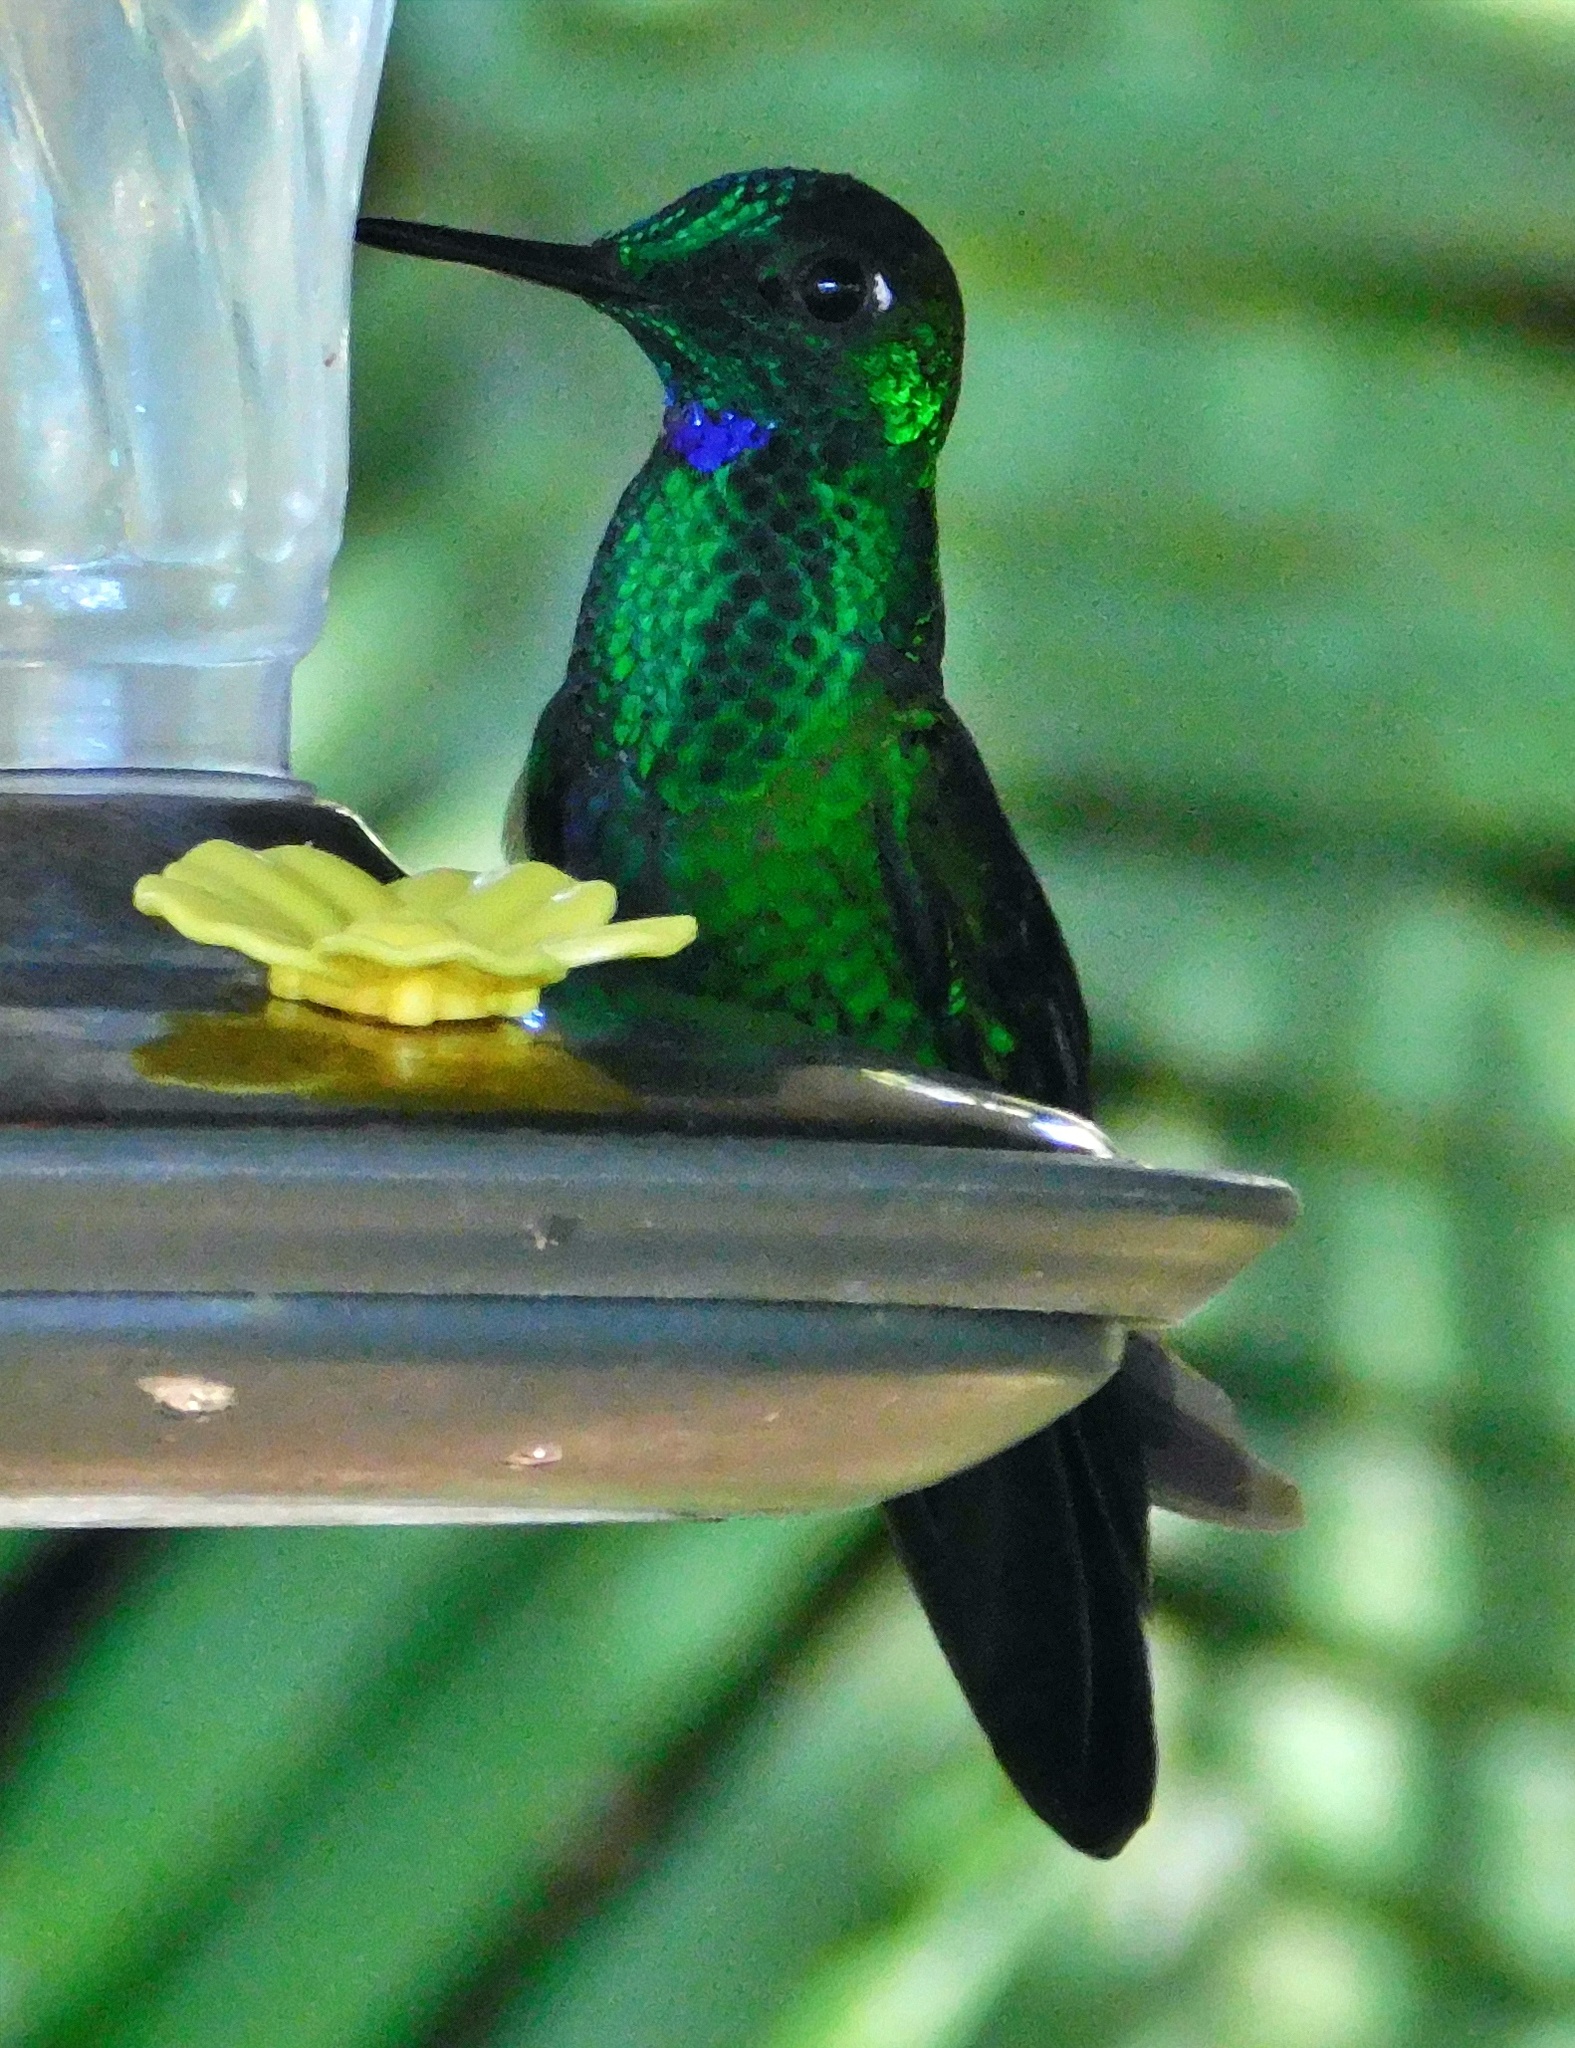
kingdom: Animalia
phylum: Chordata
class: Aves
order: Apodiformes
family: Trochilidae
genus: Heliodoxa
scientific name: Heliodoxa jacula
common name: Green-crowned brilliant
